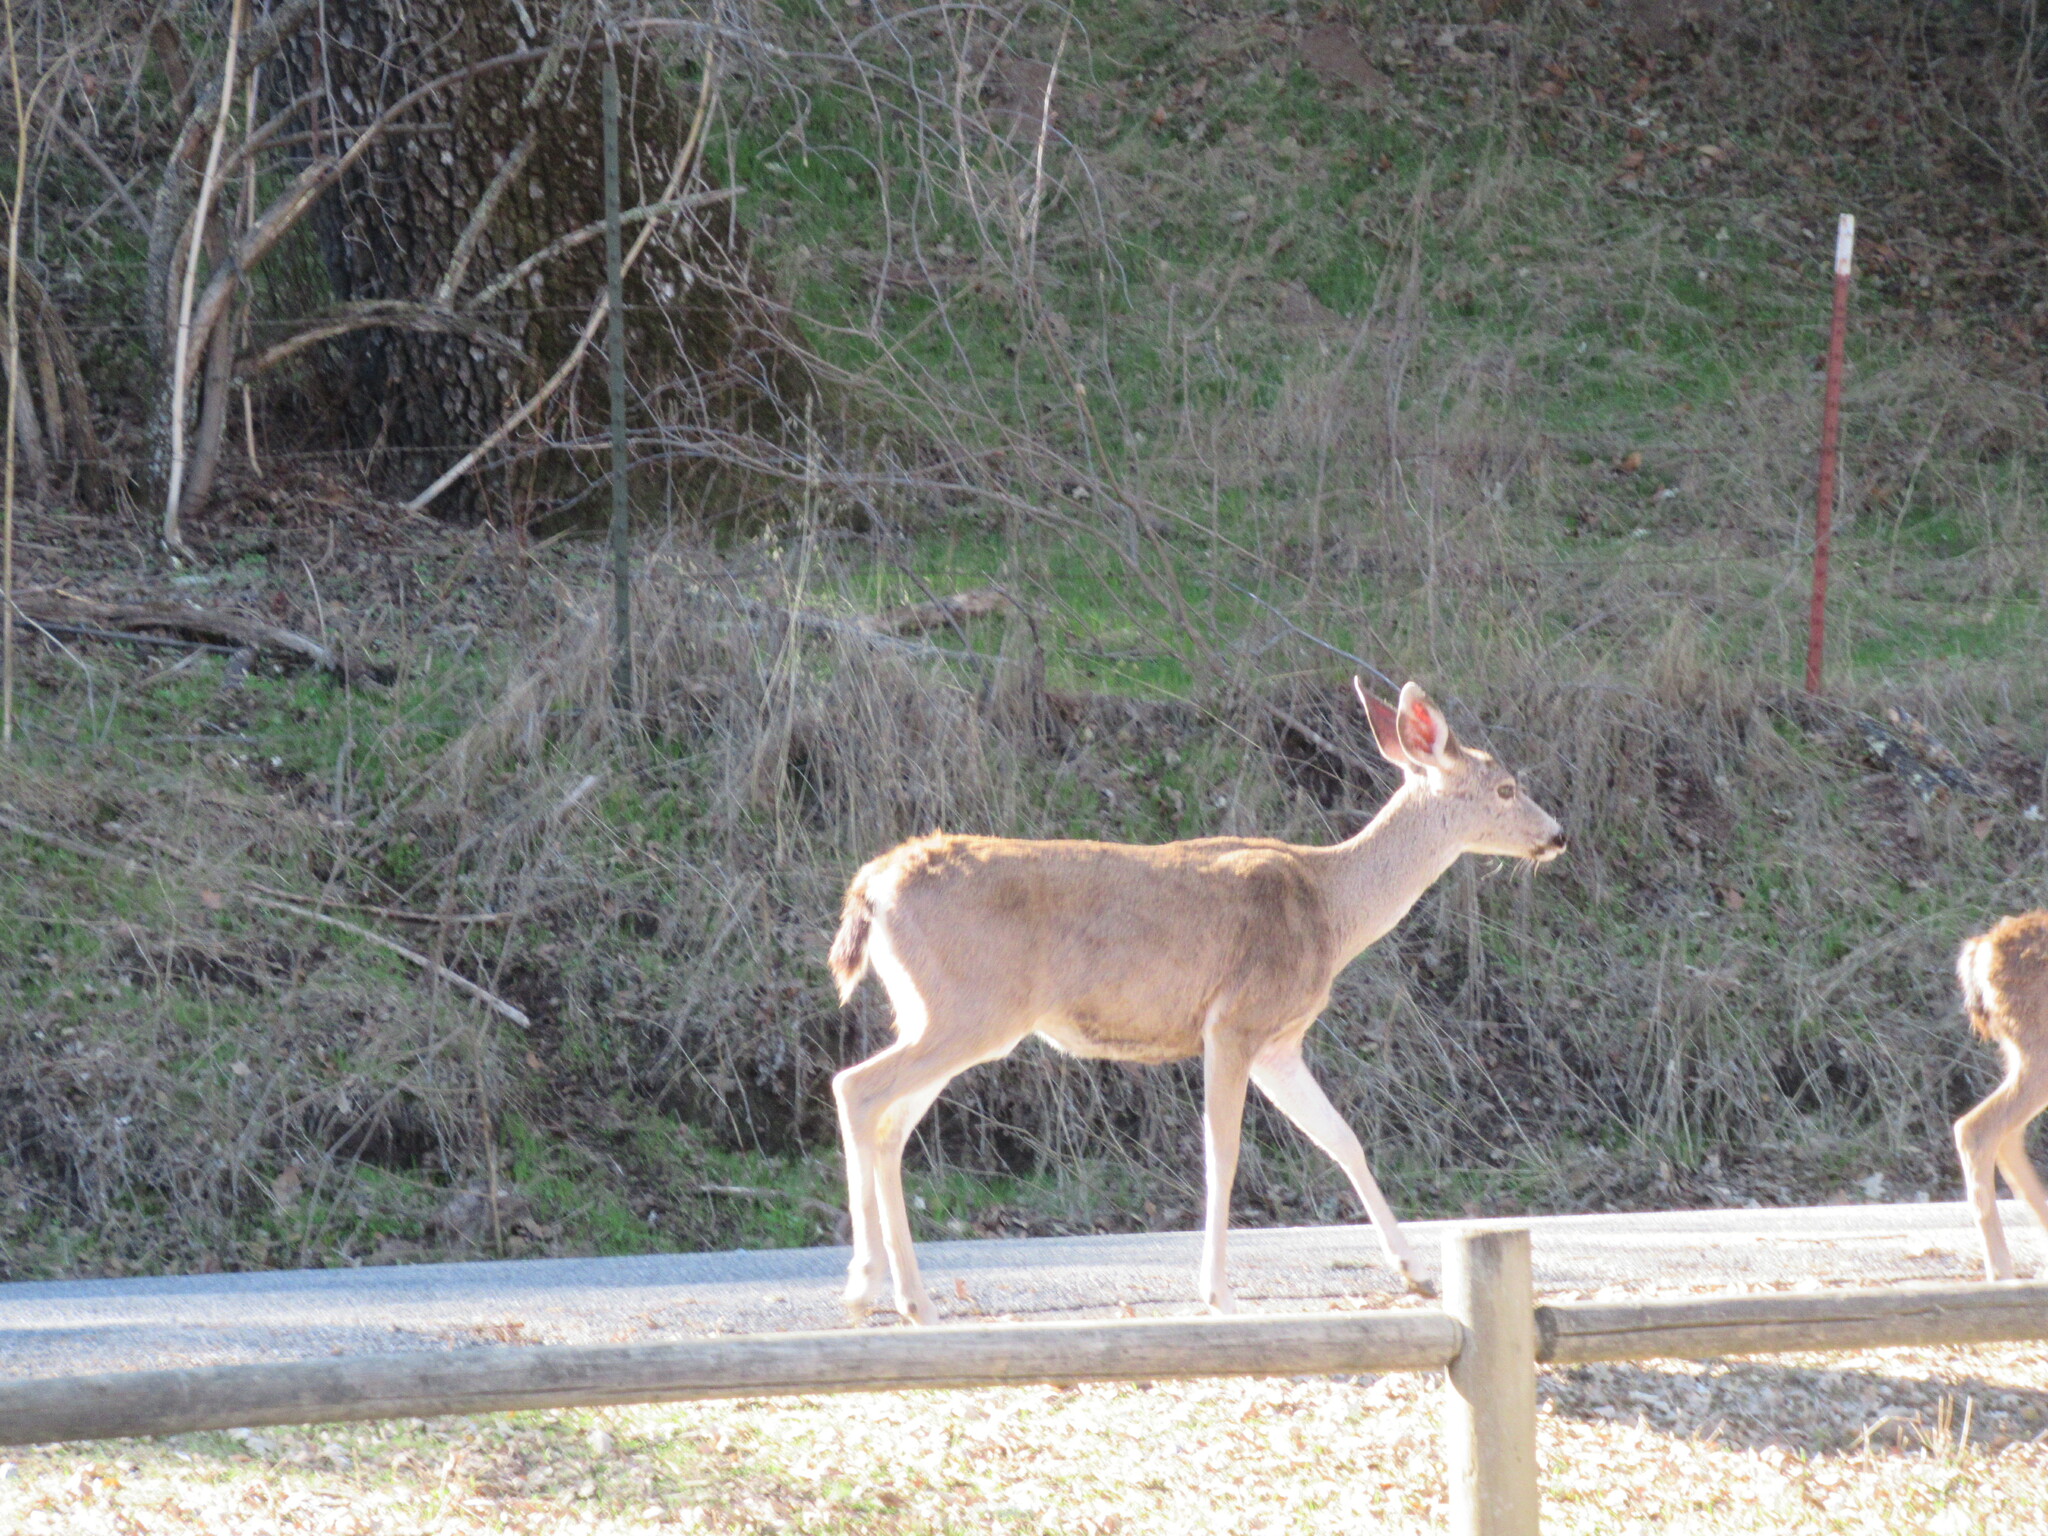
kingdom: Animalia
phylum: Chordata
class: Mammalia
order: Artiodactyla
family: Cervidae
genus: Odocoileus
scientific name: Odocoileus hemionus
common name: Mule deer
